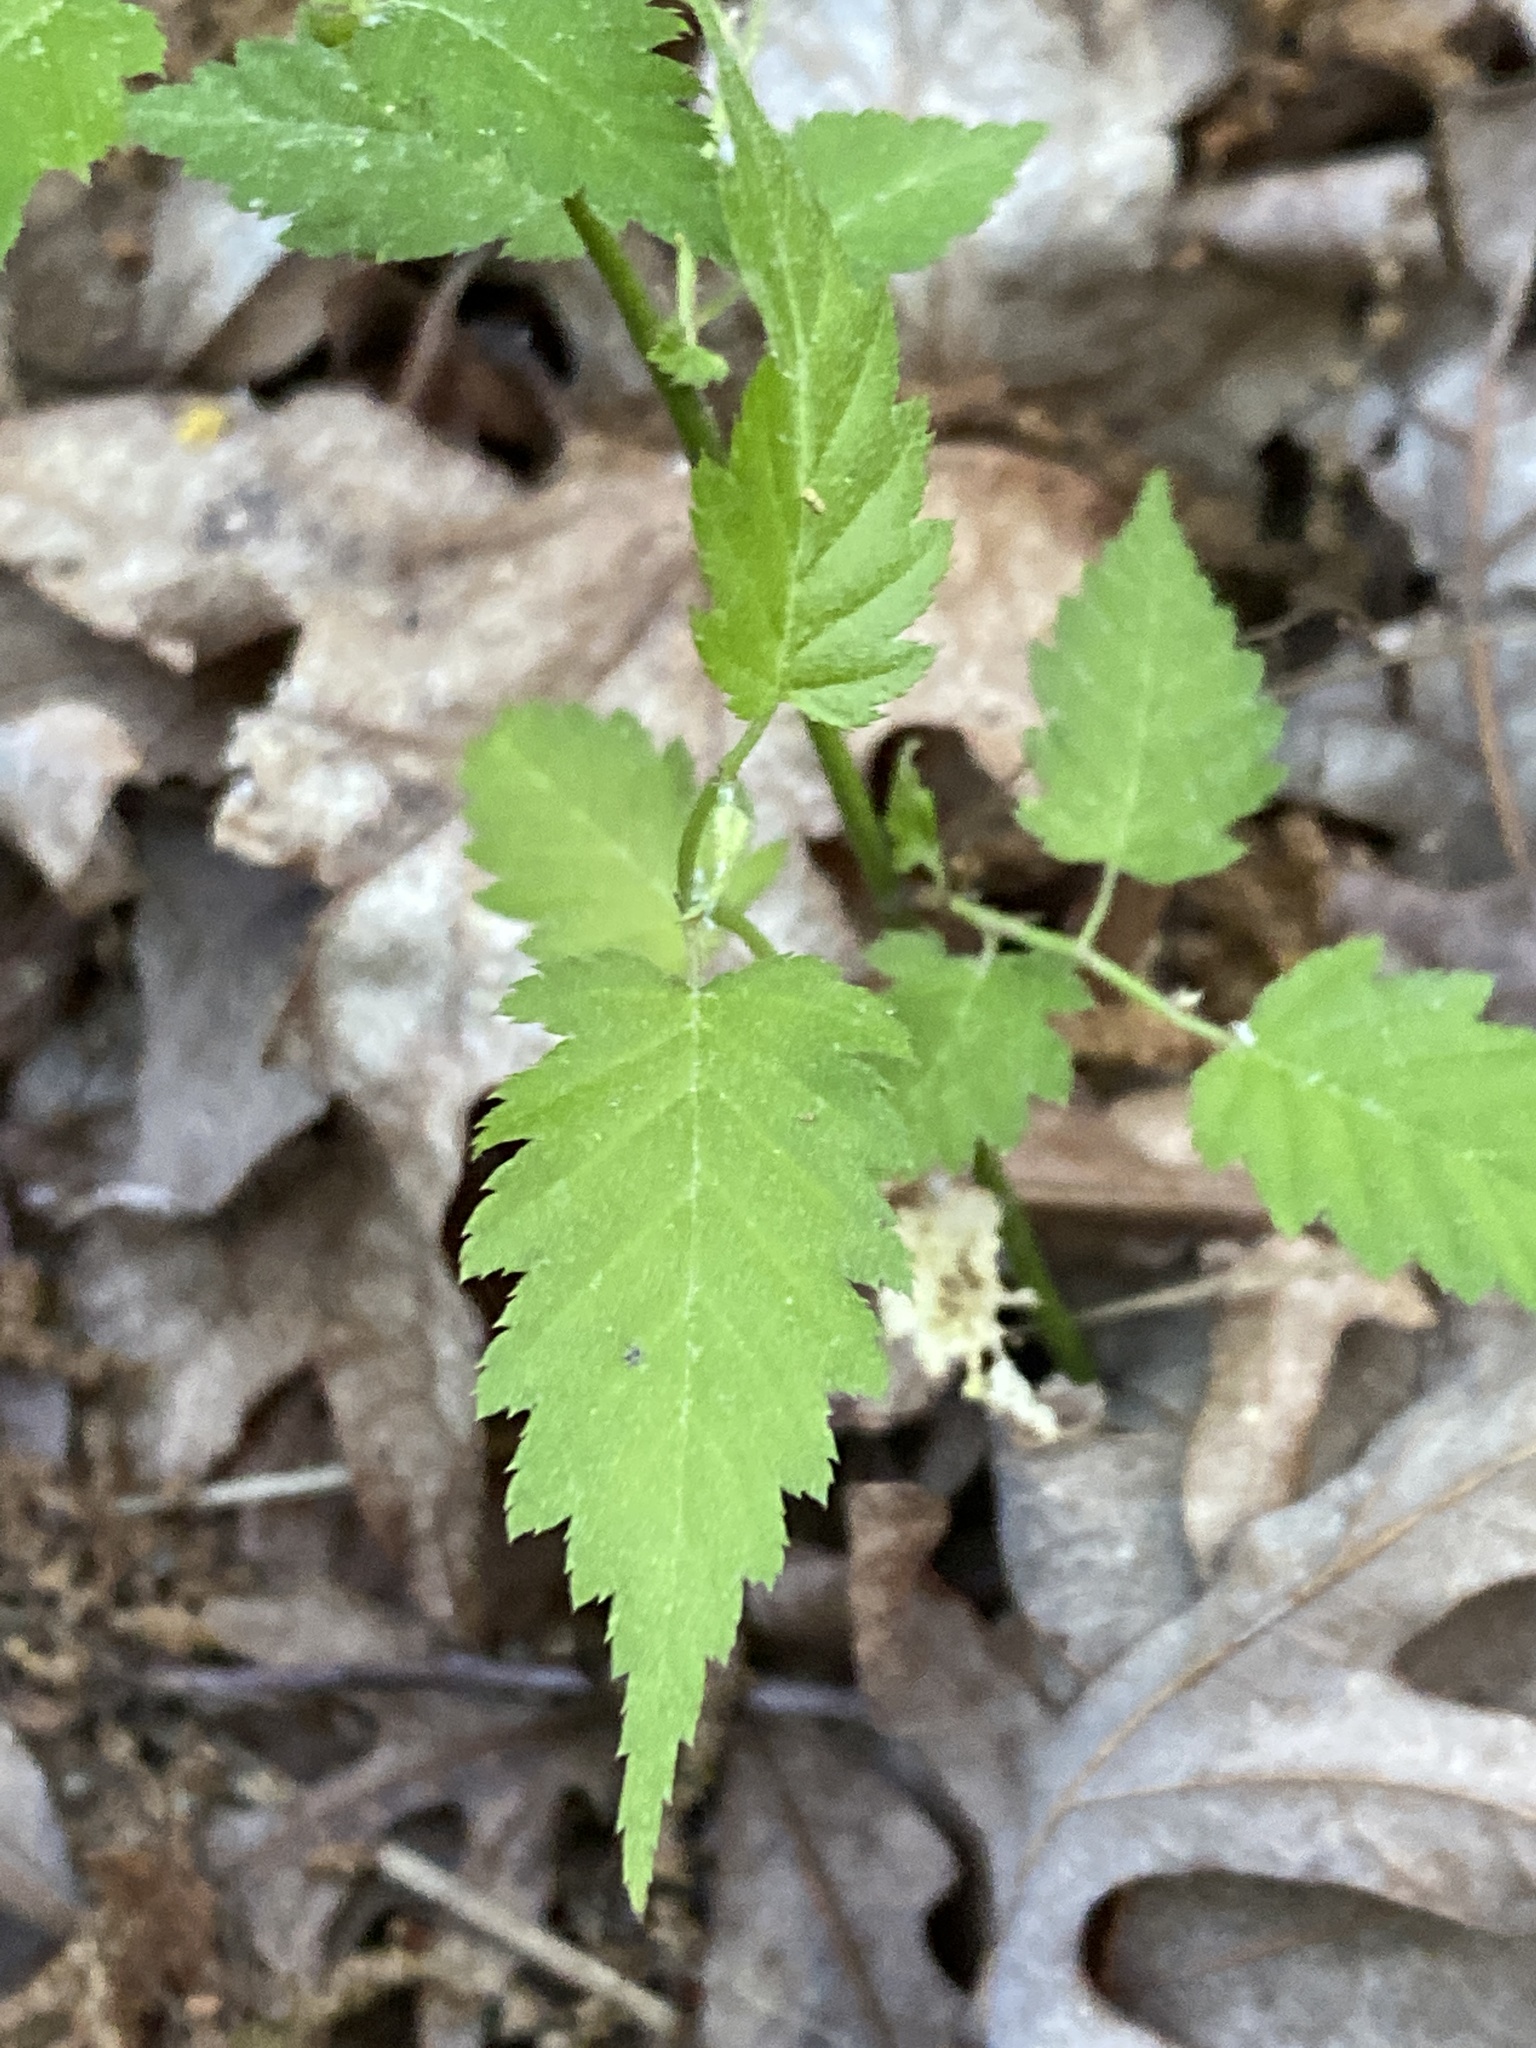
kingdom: Plantae
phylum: Tracheophyta
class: Magnoliopsida
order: Rosales
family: Rosaceae
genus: Kerria
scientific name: Kerria japonica
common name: Japanese kerria
